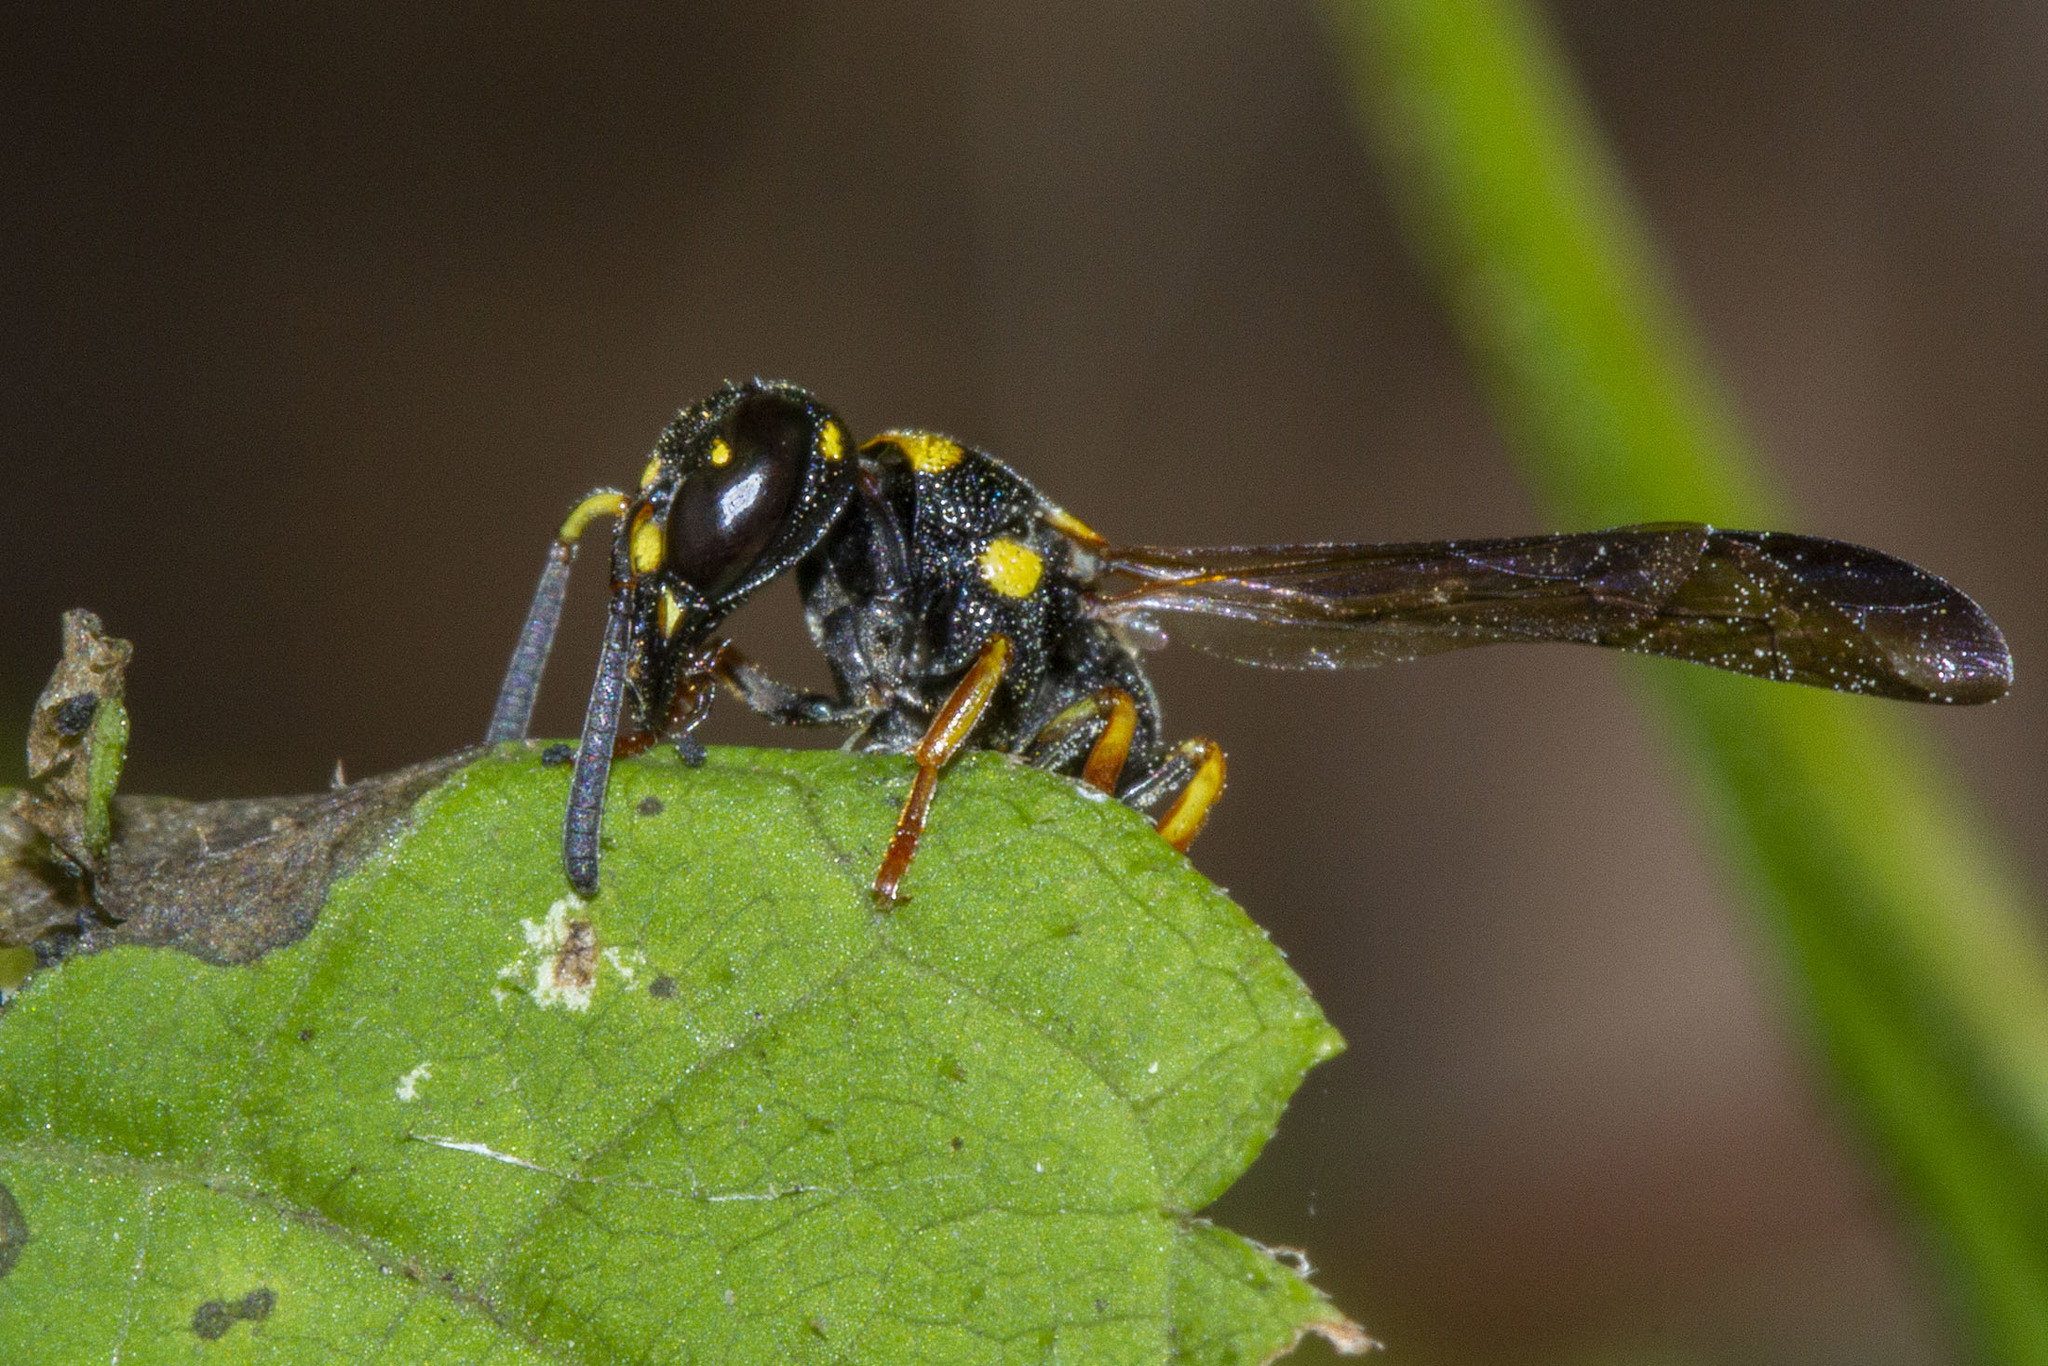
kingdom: Animalia
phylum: Arthropoda
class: Insecta
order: Hymenoptera
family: Eumenidae
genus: Parancistrocerus
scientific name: Parancistrocerus perennis
